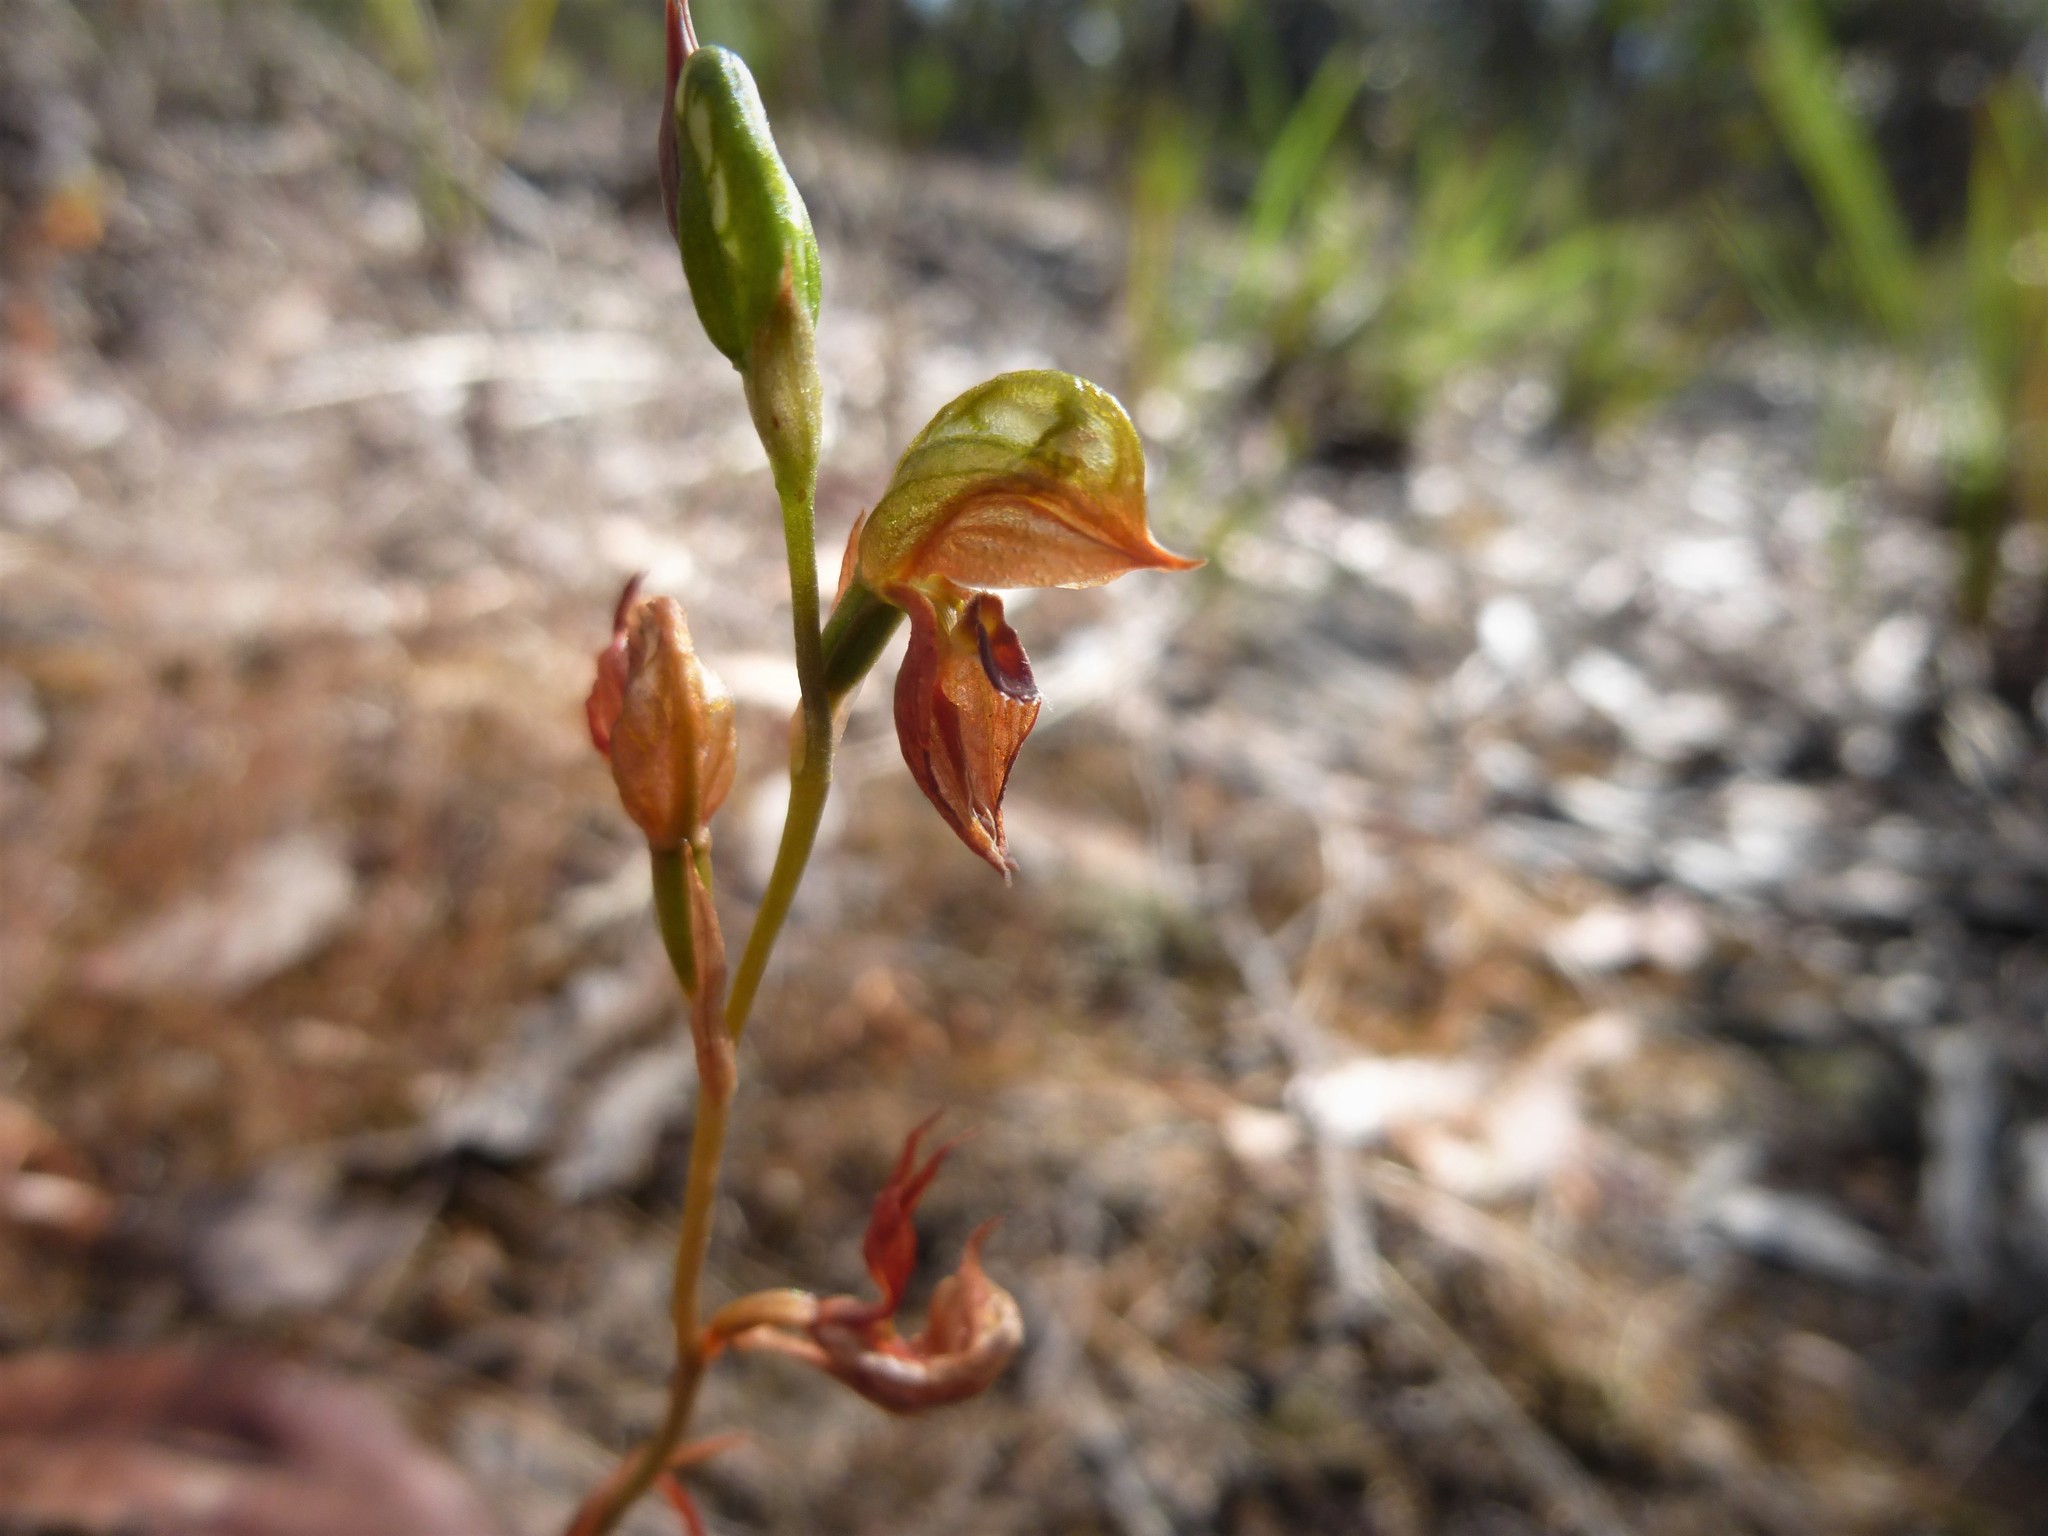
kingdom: Plantae
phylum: Tracheophyta
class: Liliopsida
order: Asparagales
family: Orchidaceae
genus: Pterostylis
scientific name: Pterostylis squamata
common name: Ruddy greenhood
